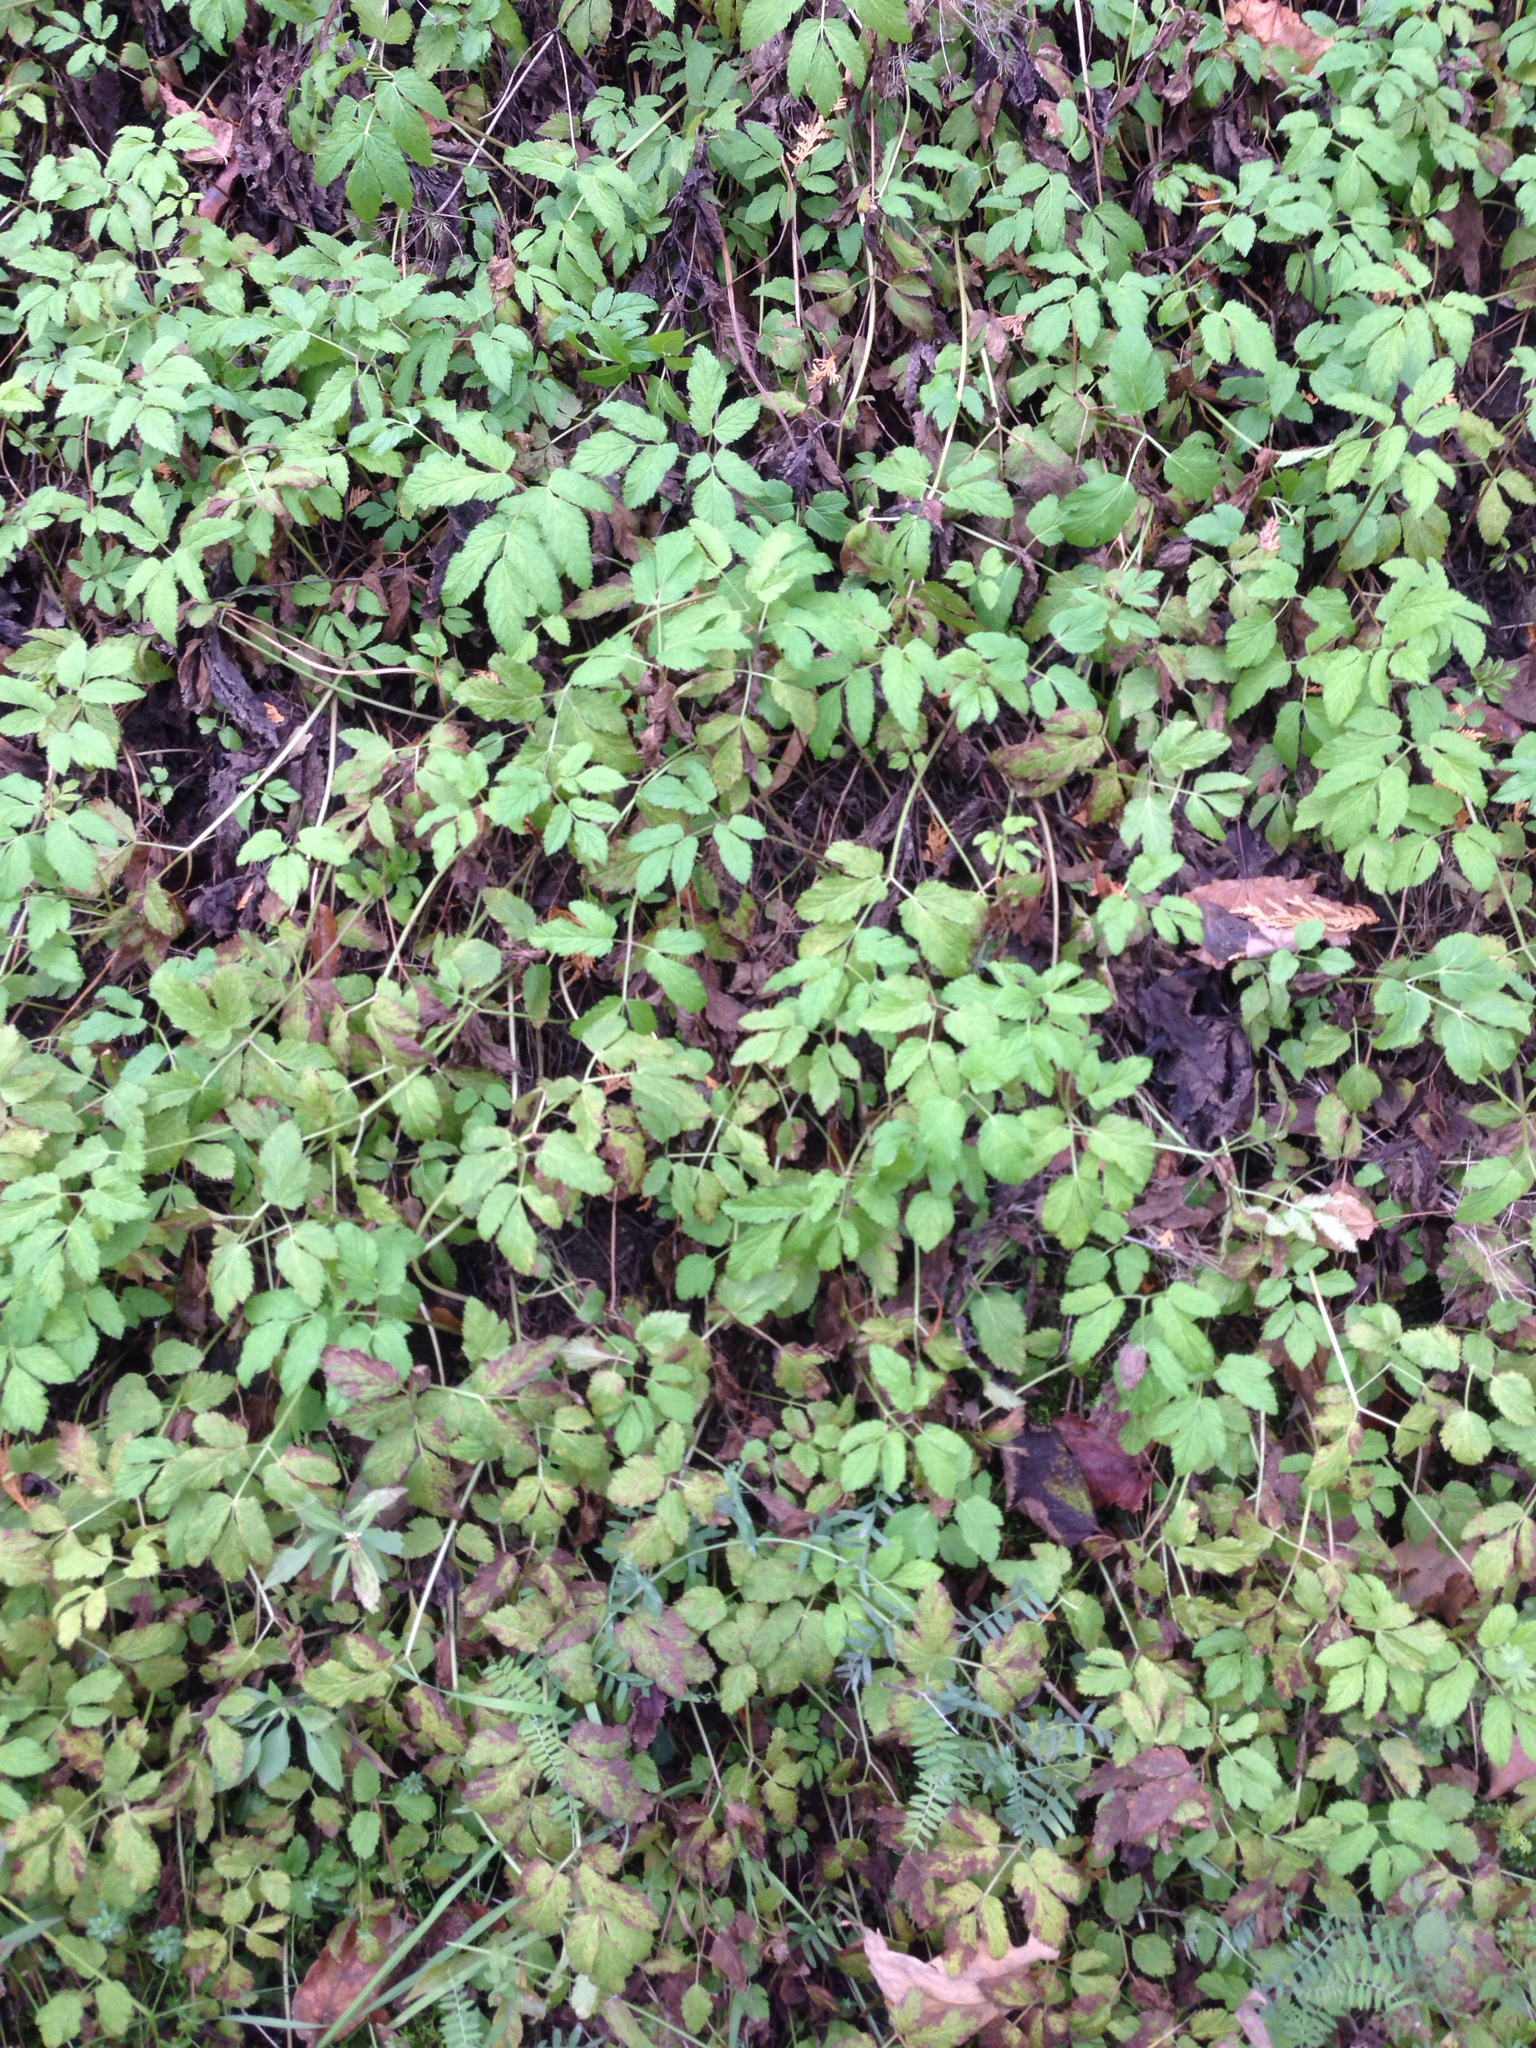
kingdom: Plantae
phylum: Tracheophyta
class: Magnoliopsida
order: Apiales
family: Apiaceae
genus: Aegopodium
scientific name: Aegopodium podagraria
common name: Ground-elder
